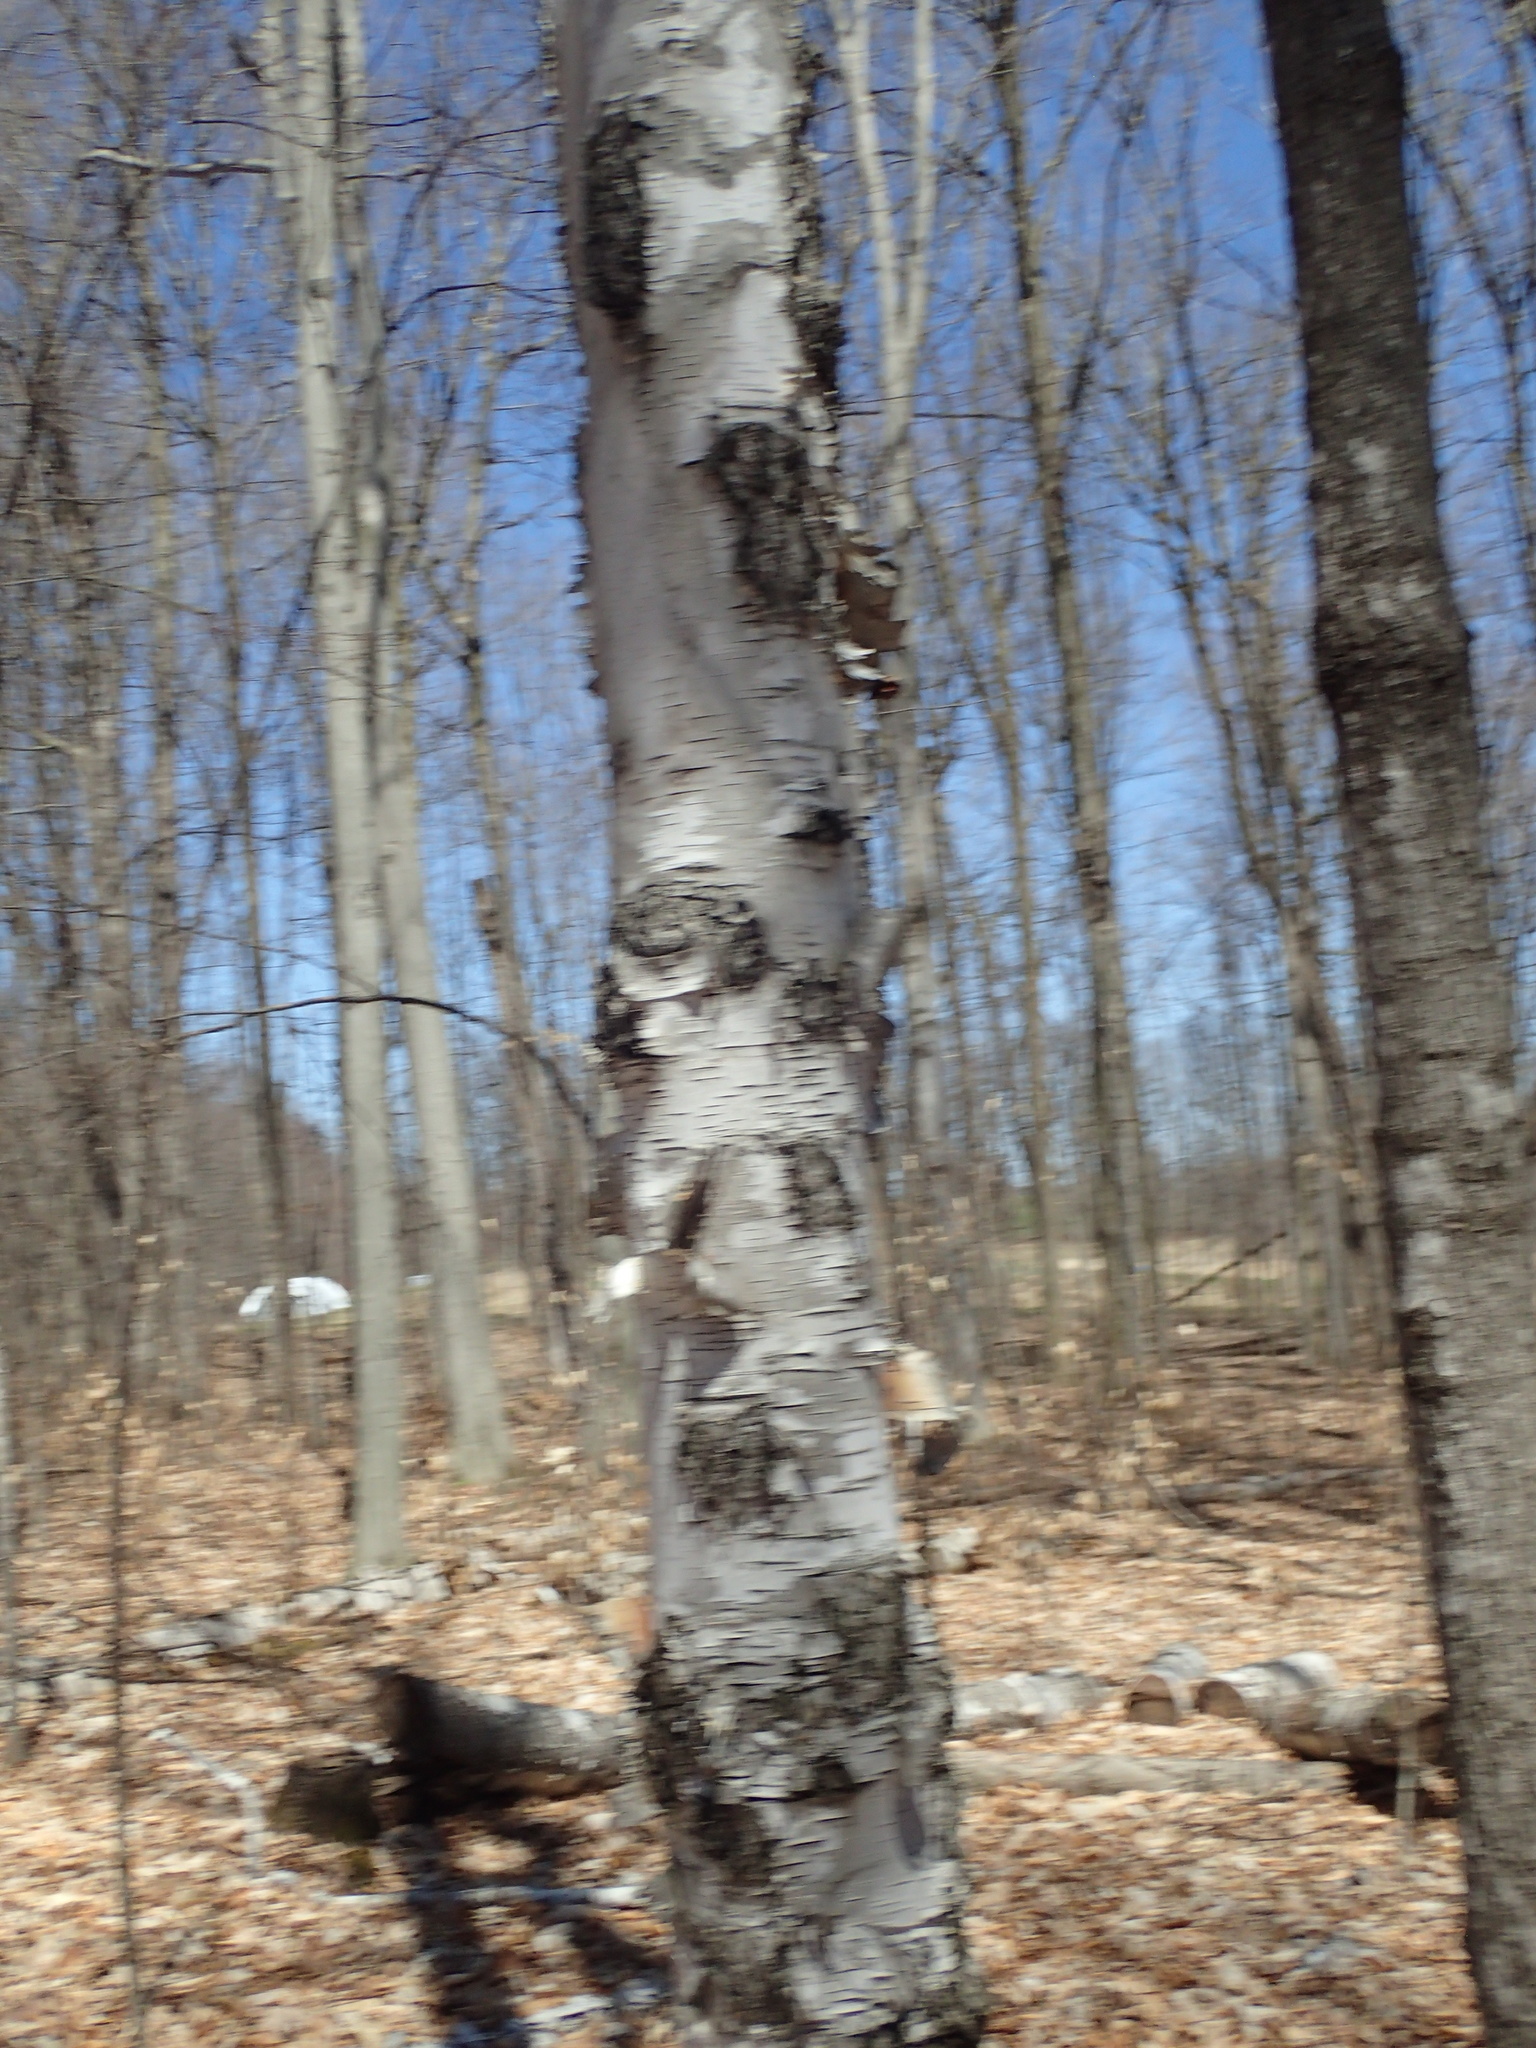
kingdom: Plantae
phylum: Tracheophyta
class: Magnoliopsida
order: Fagales
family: Betulaceae
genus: Betula
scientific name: Betula papyrifera
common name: Paper birch
